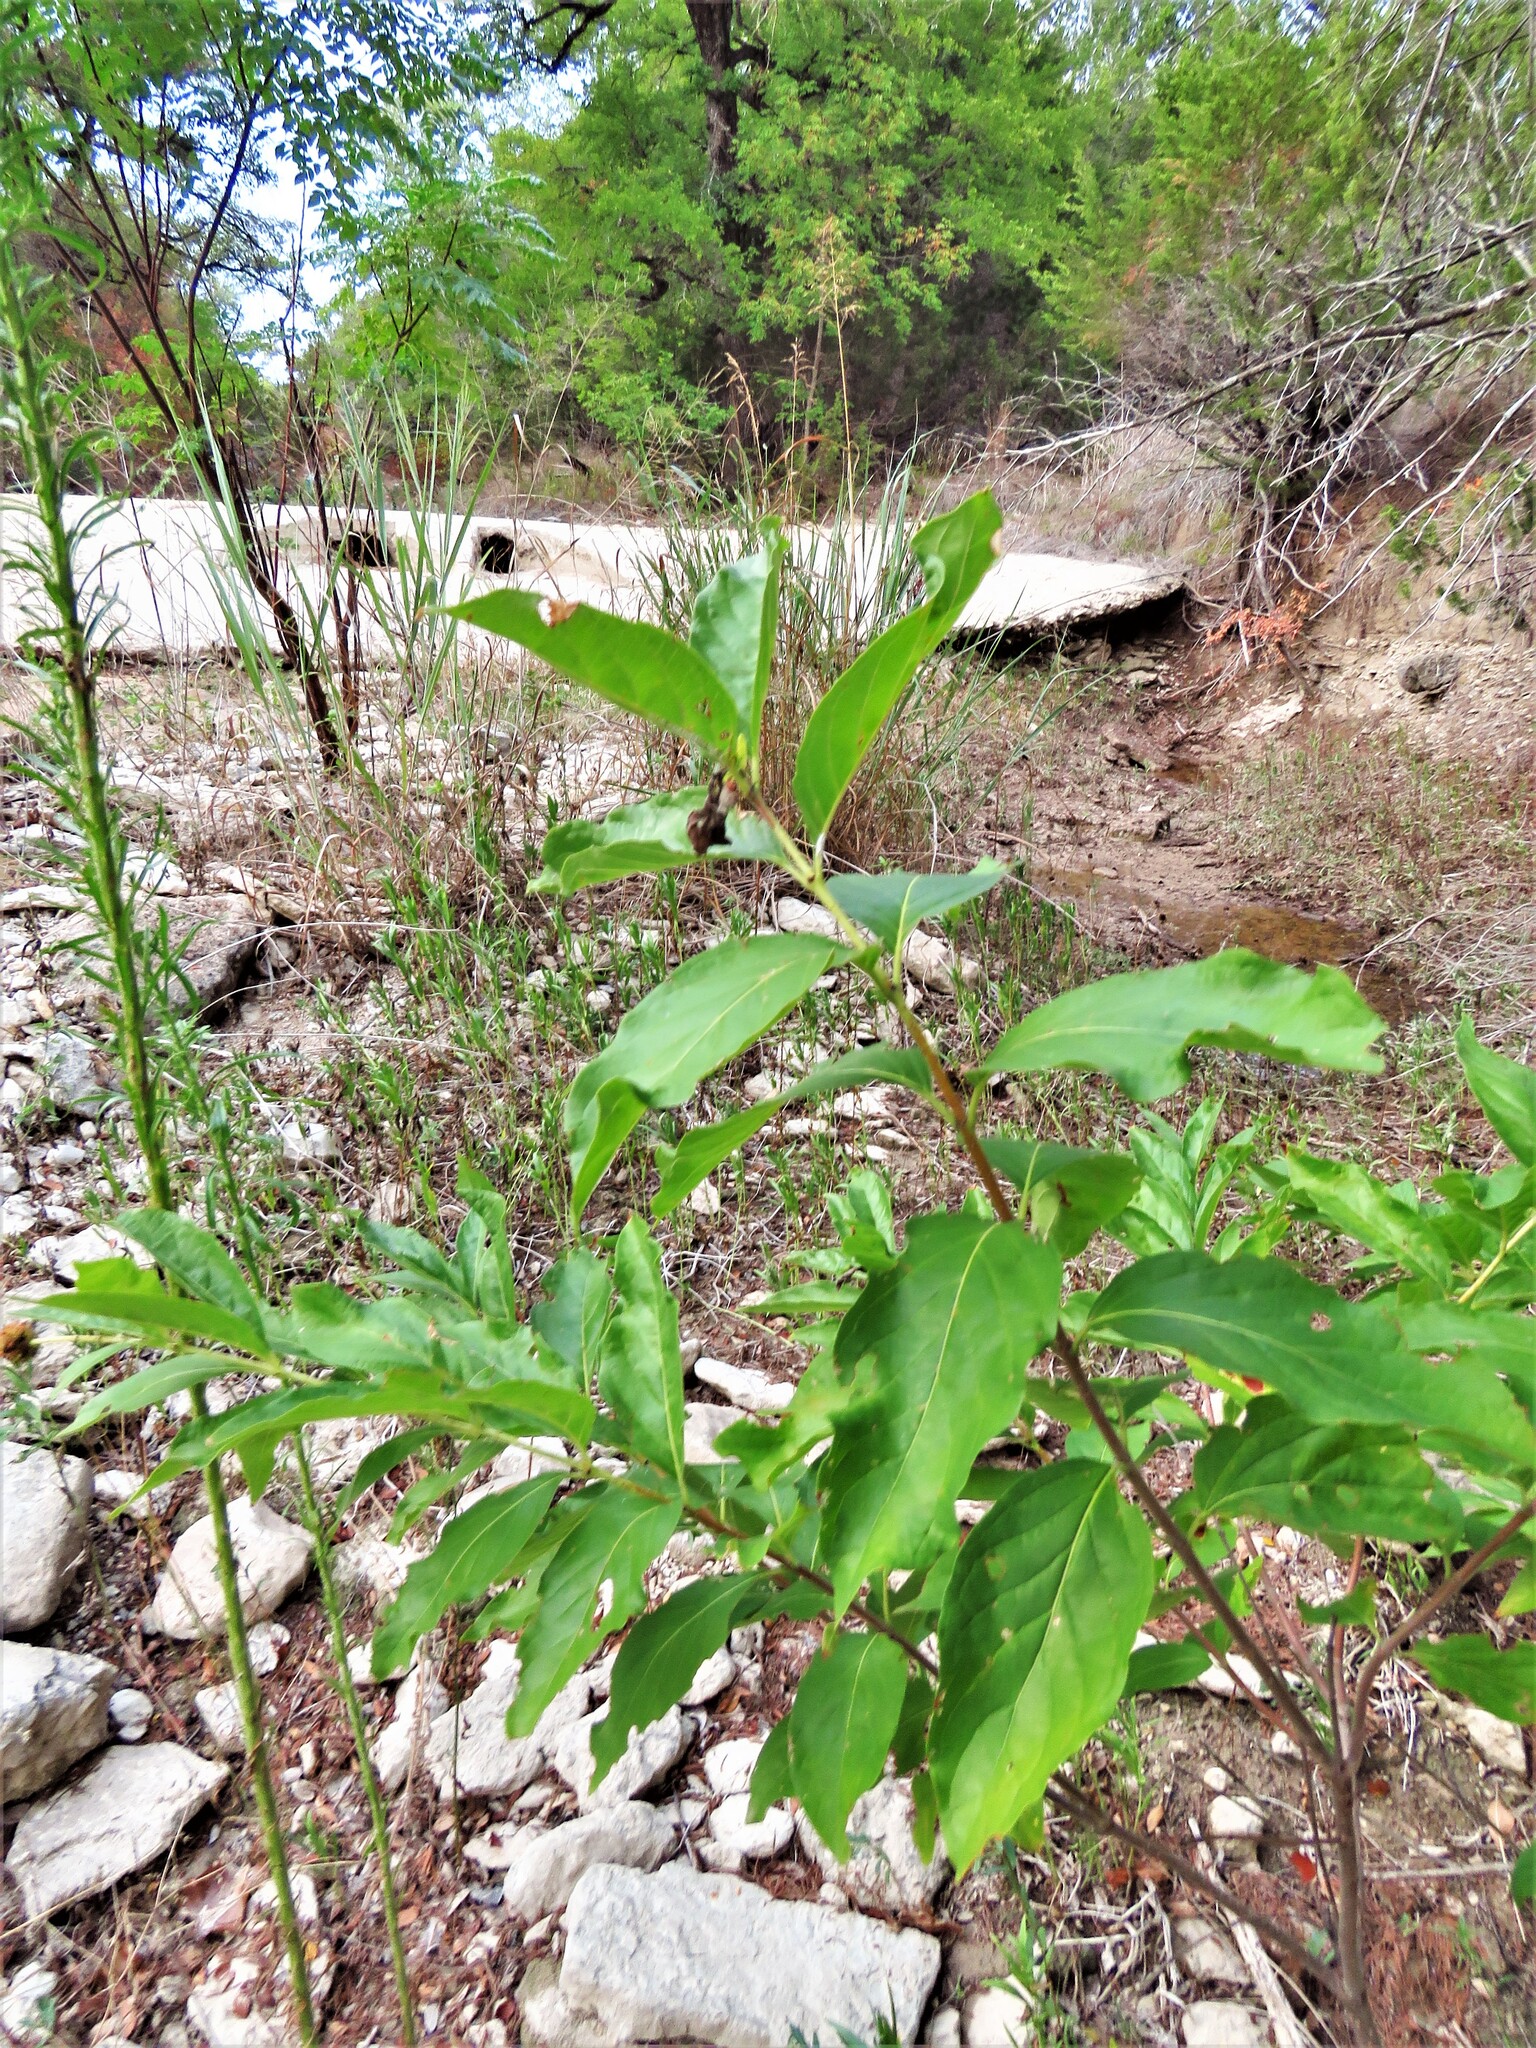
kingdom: Plantae
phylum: Tracheophyta
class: Magnoliopsida
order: Gentianales
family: Rubiaceae
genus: Cephalanthus
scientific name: Cephalanthus occidentalis
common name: Button-willow
